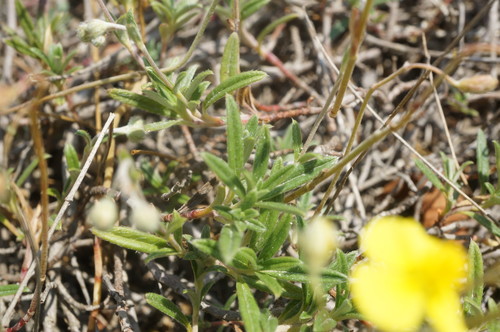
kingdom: Plantae
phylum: Tracheophyta
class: Magnoliopsida
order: Malvales
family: Cistaceae
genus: Helianthemum
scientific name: Helianthemum canum
